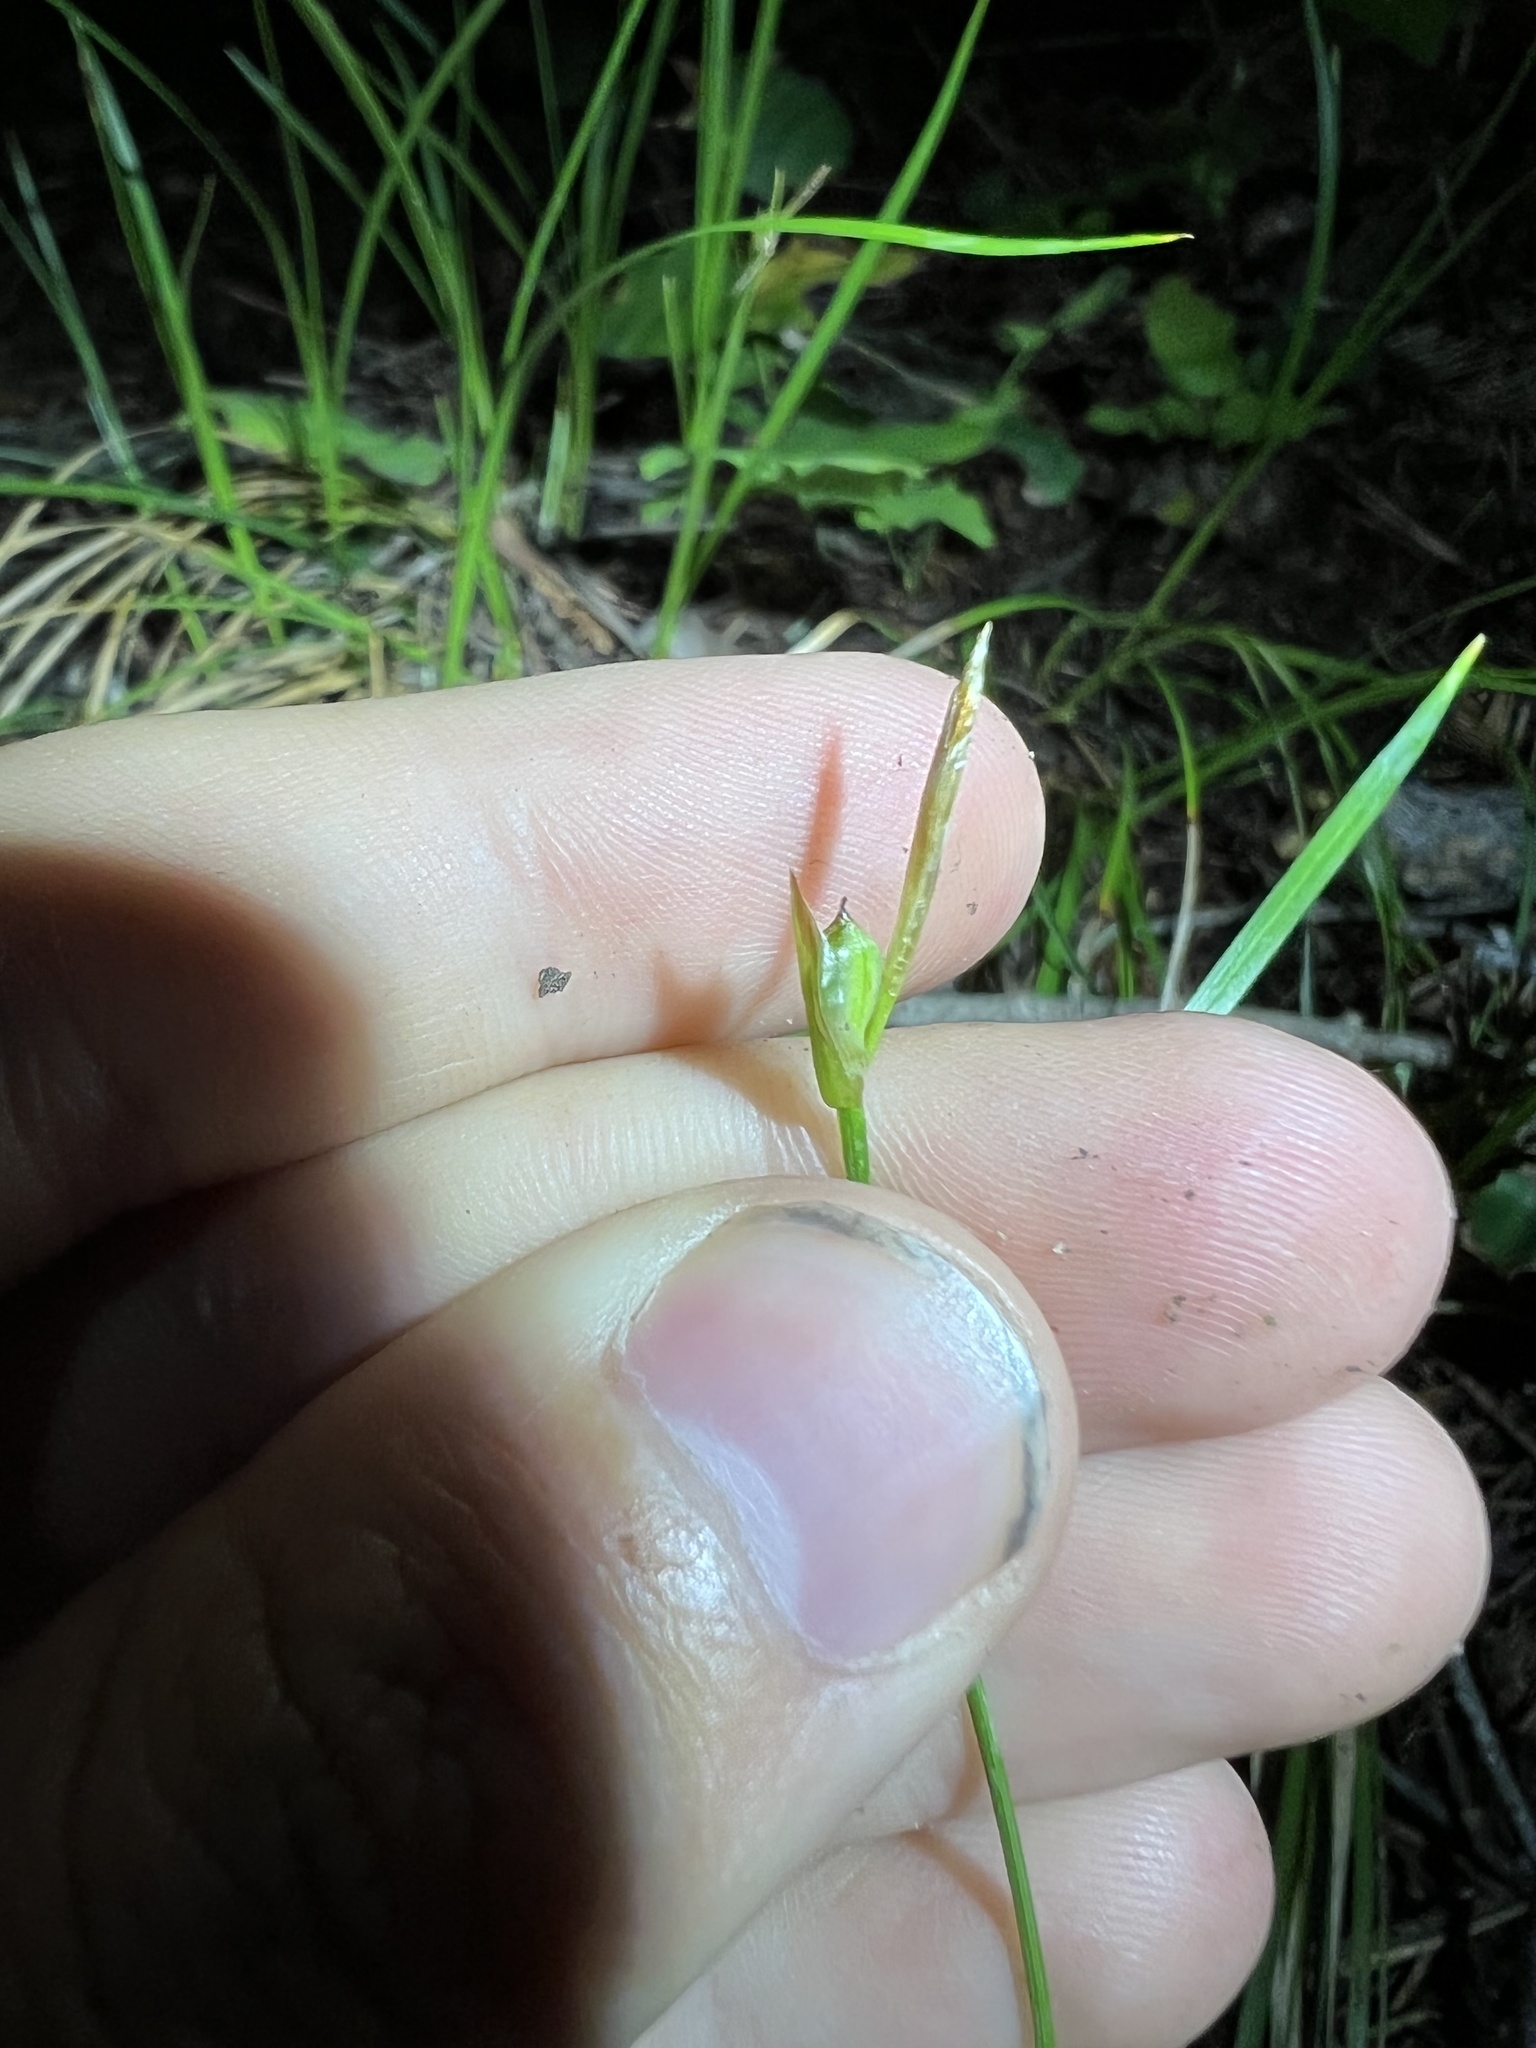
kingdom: Plantae
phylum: Tracheophyta
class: Liliopsida
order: Poales
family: Cyperaceae
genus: Carex
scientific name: Carex geyeri
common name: Elk sedge
